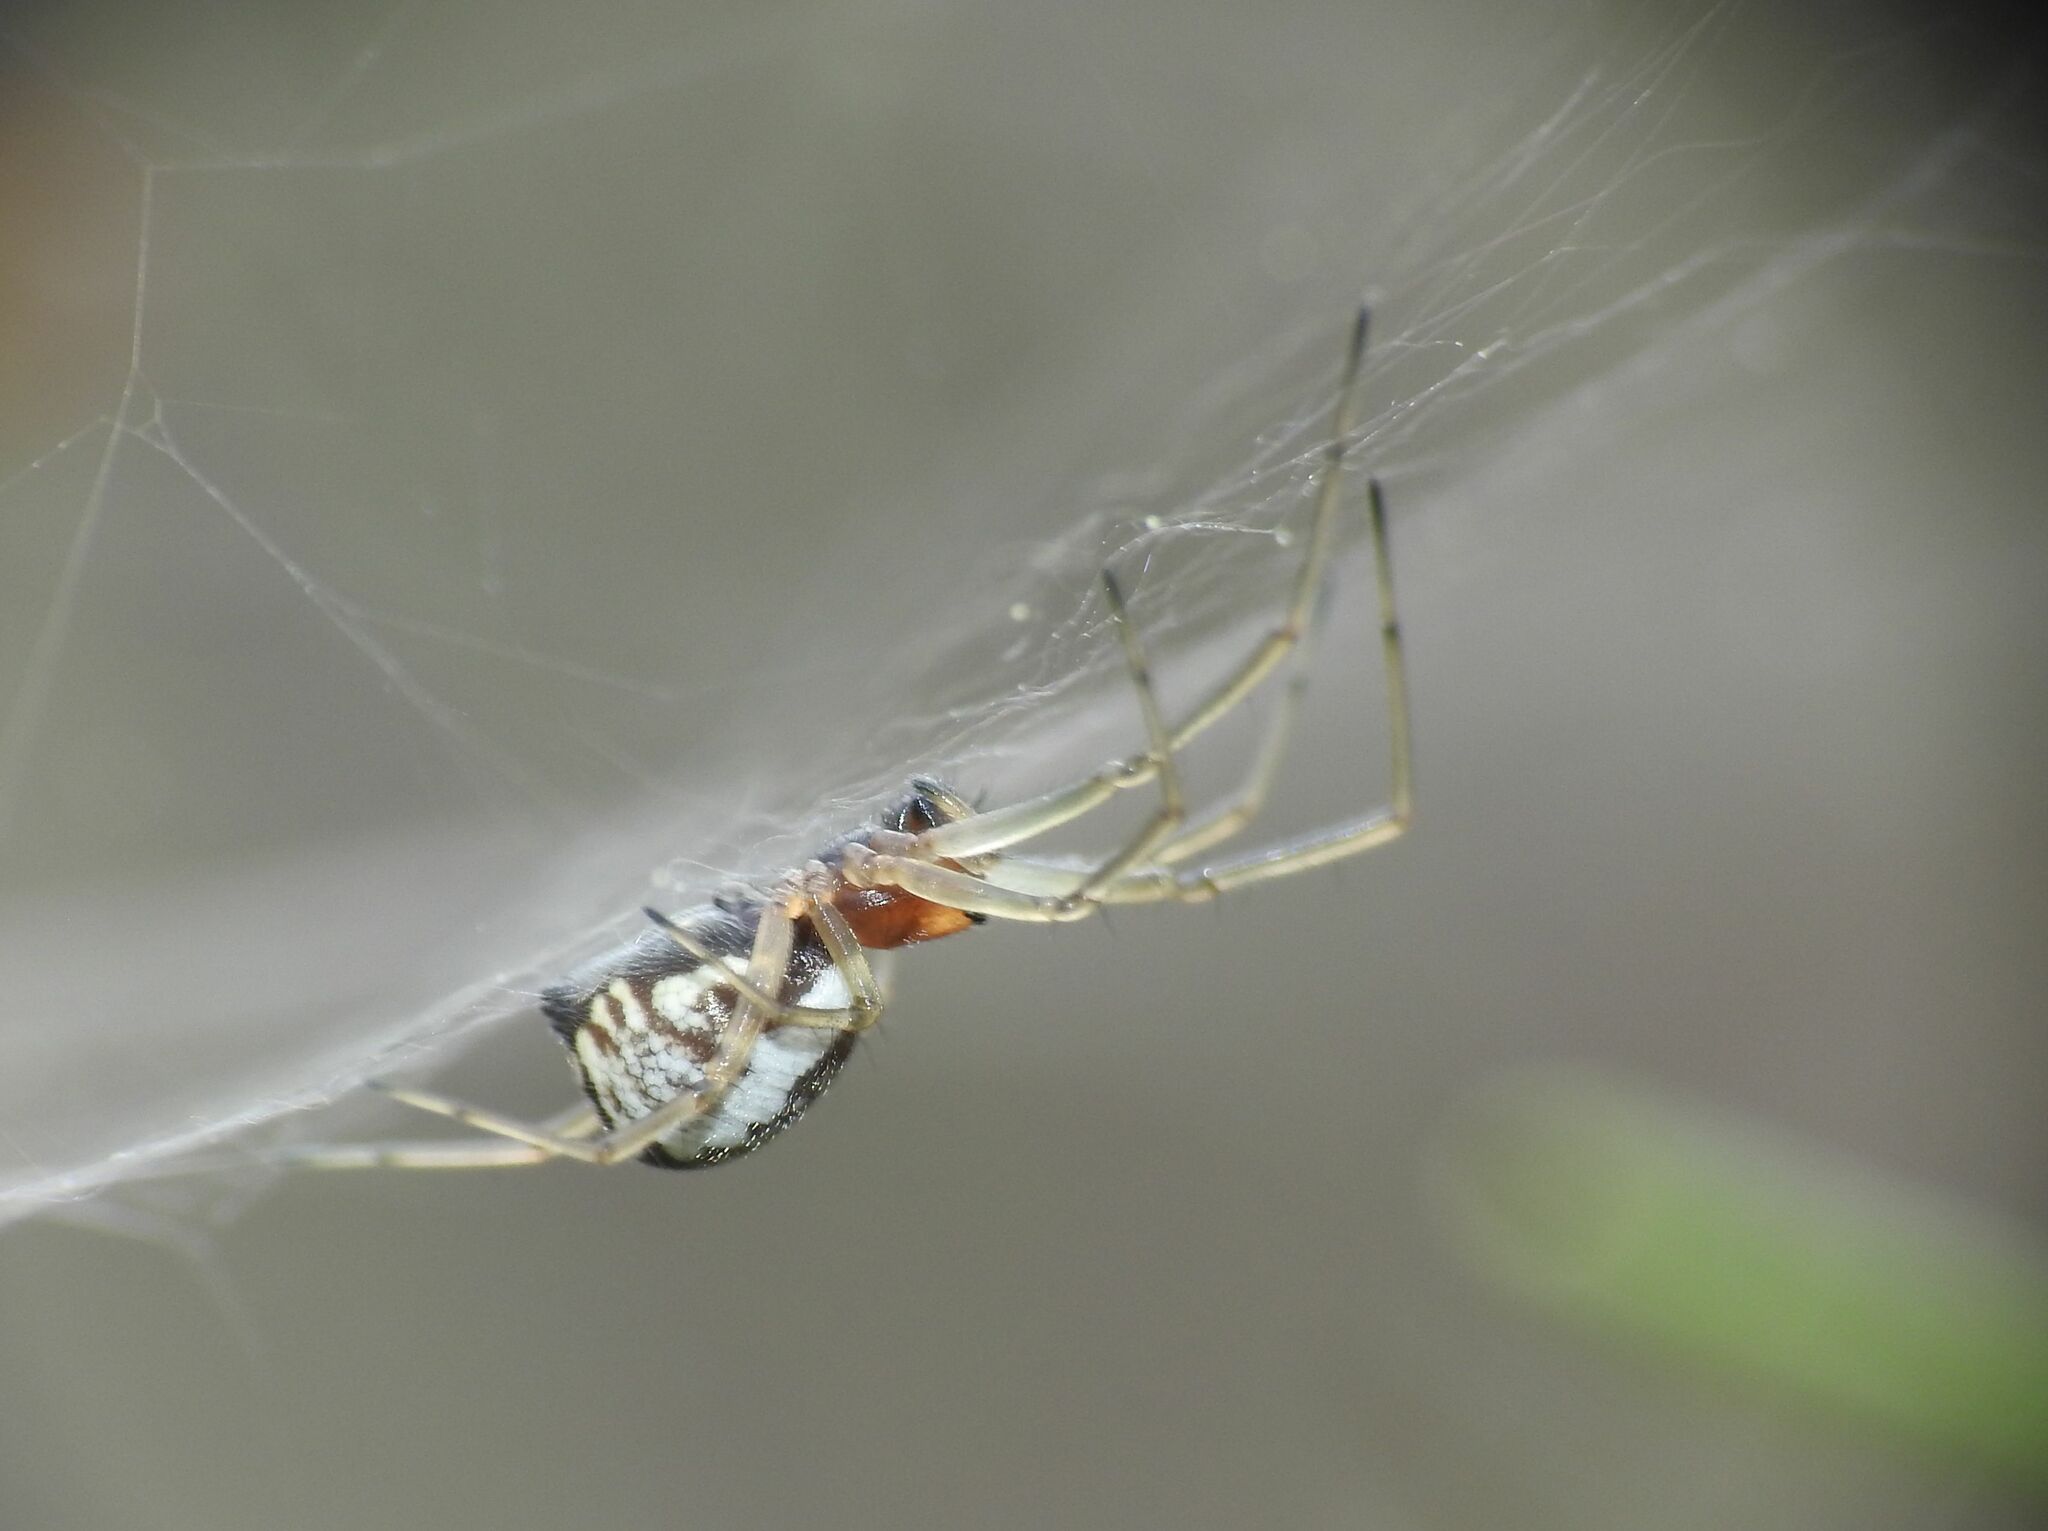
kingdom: Animalia
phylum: Arthropoda
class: Arachnida
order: Araneae
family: Linyphiidae
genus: Frontinellina
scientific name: Frontinellina frutetorum
